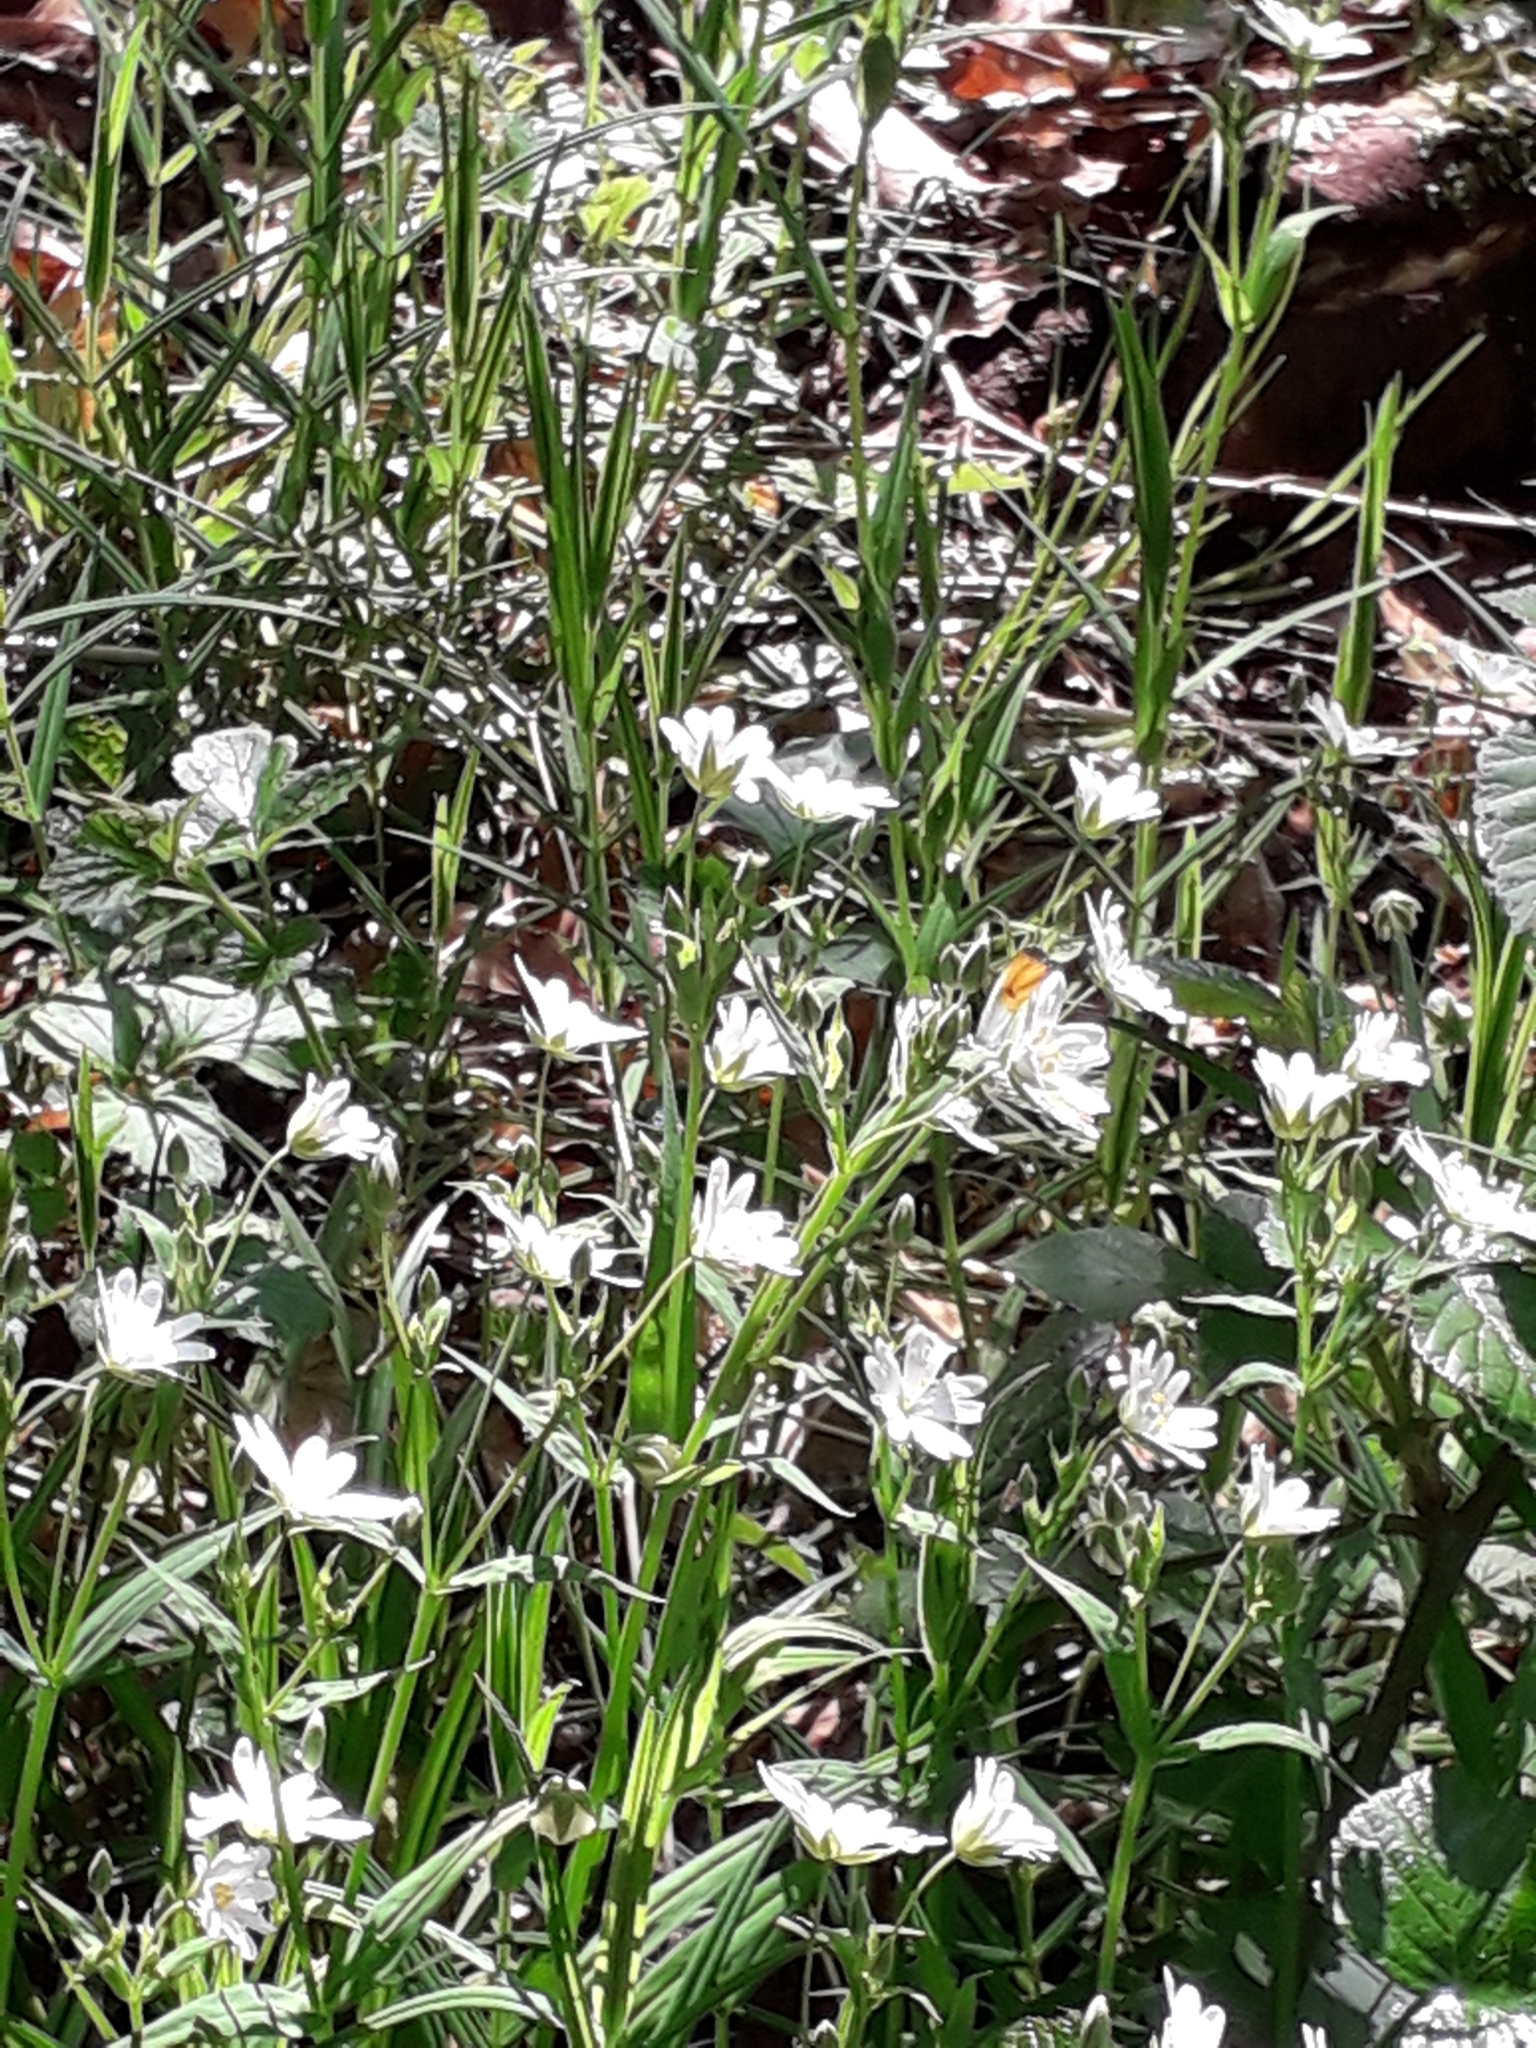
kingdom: Animalia
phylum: Arthropoda
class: Insecta
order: Lepidoptera
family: Pieridae
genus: Anthocharis
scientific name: Anthocharis cardamines
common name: Orange-tip
